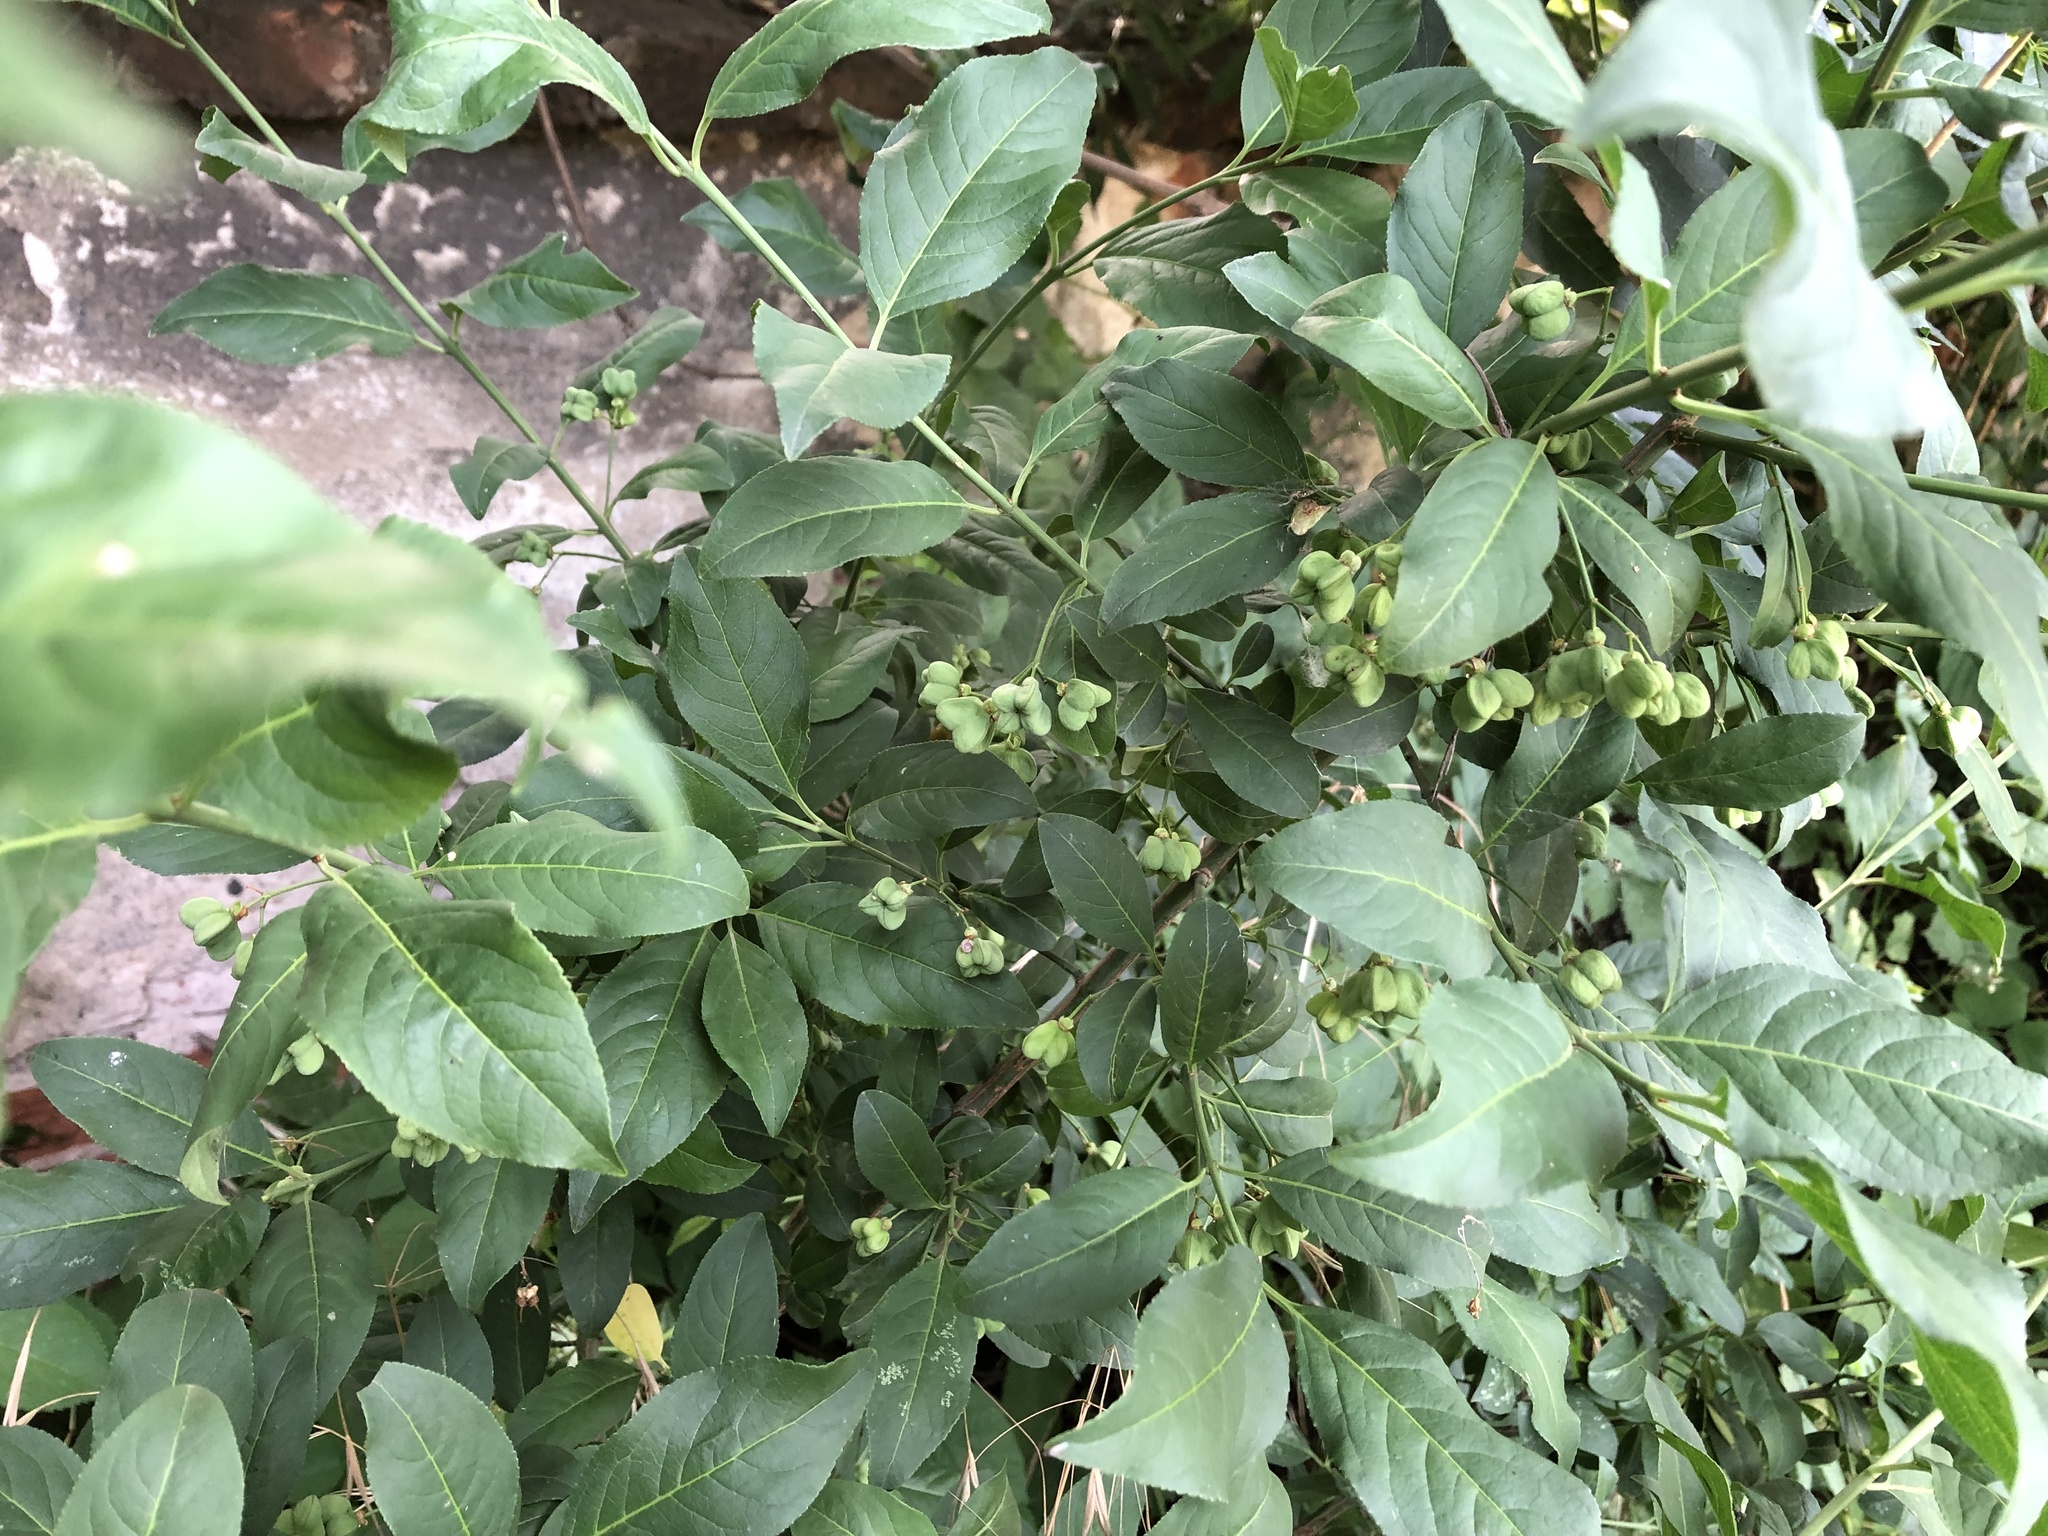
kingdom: Plantae
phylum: Tracheophyta
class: Magnoliopsida
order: Celastrales
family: Celastraceae
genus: Euonymus
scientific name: Euonymus europaeus
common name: Spindle
